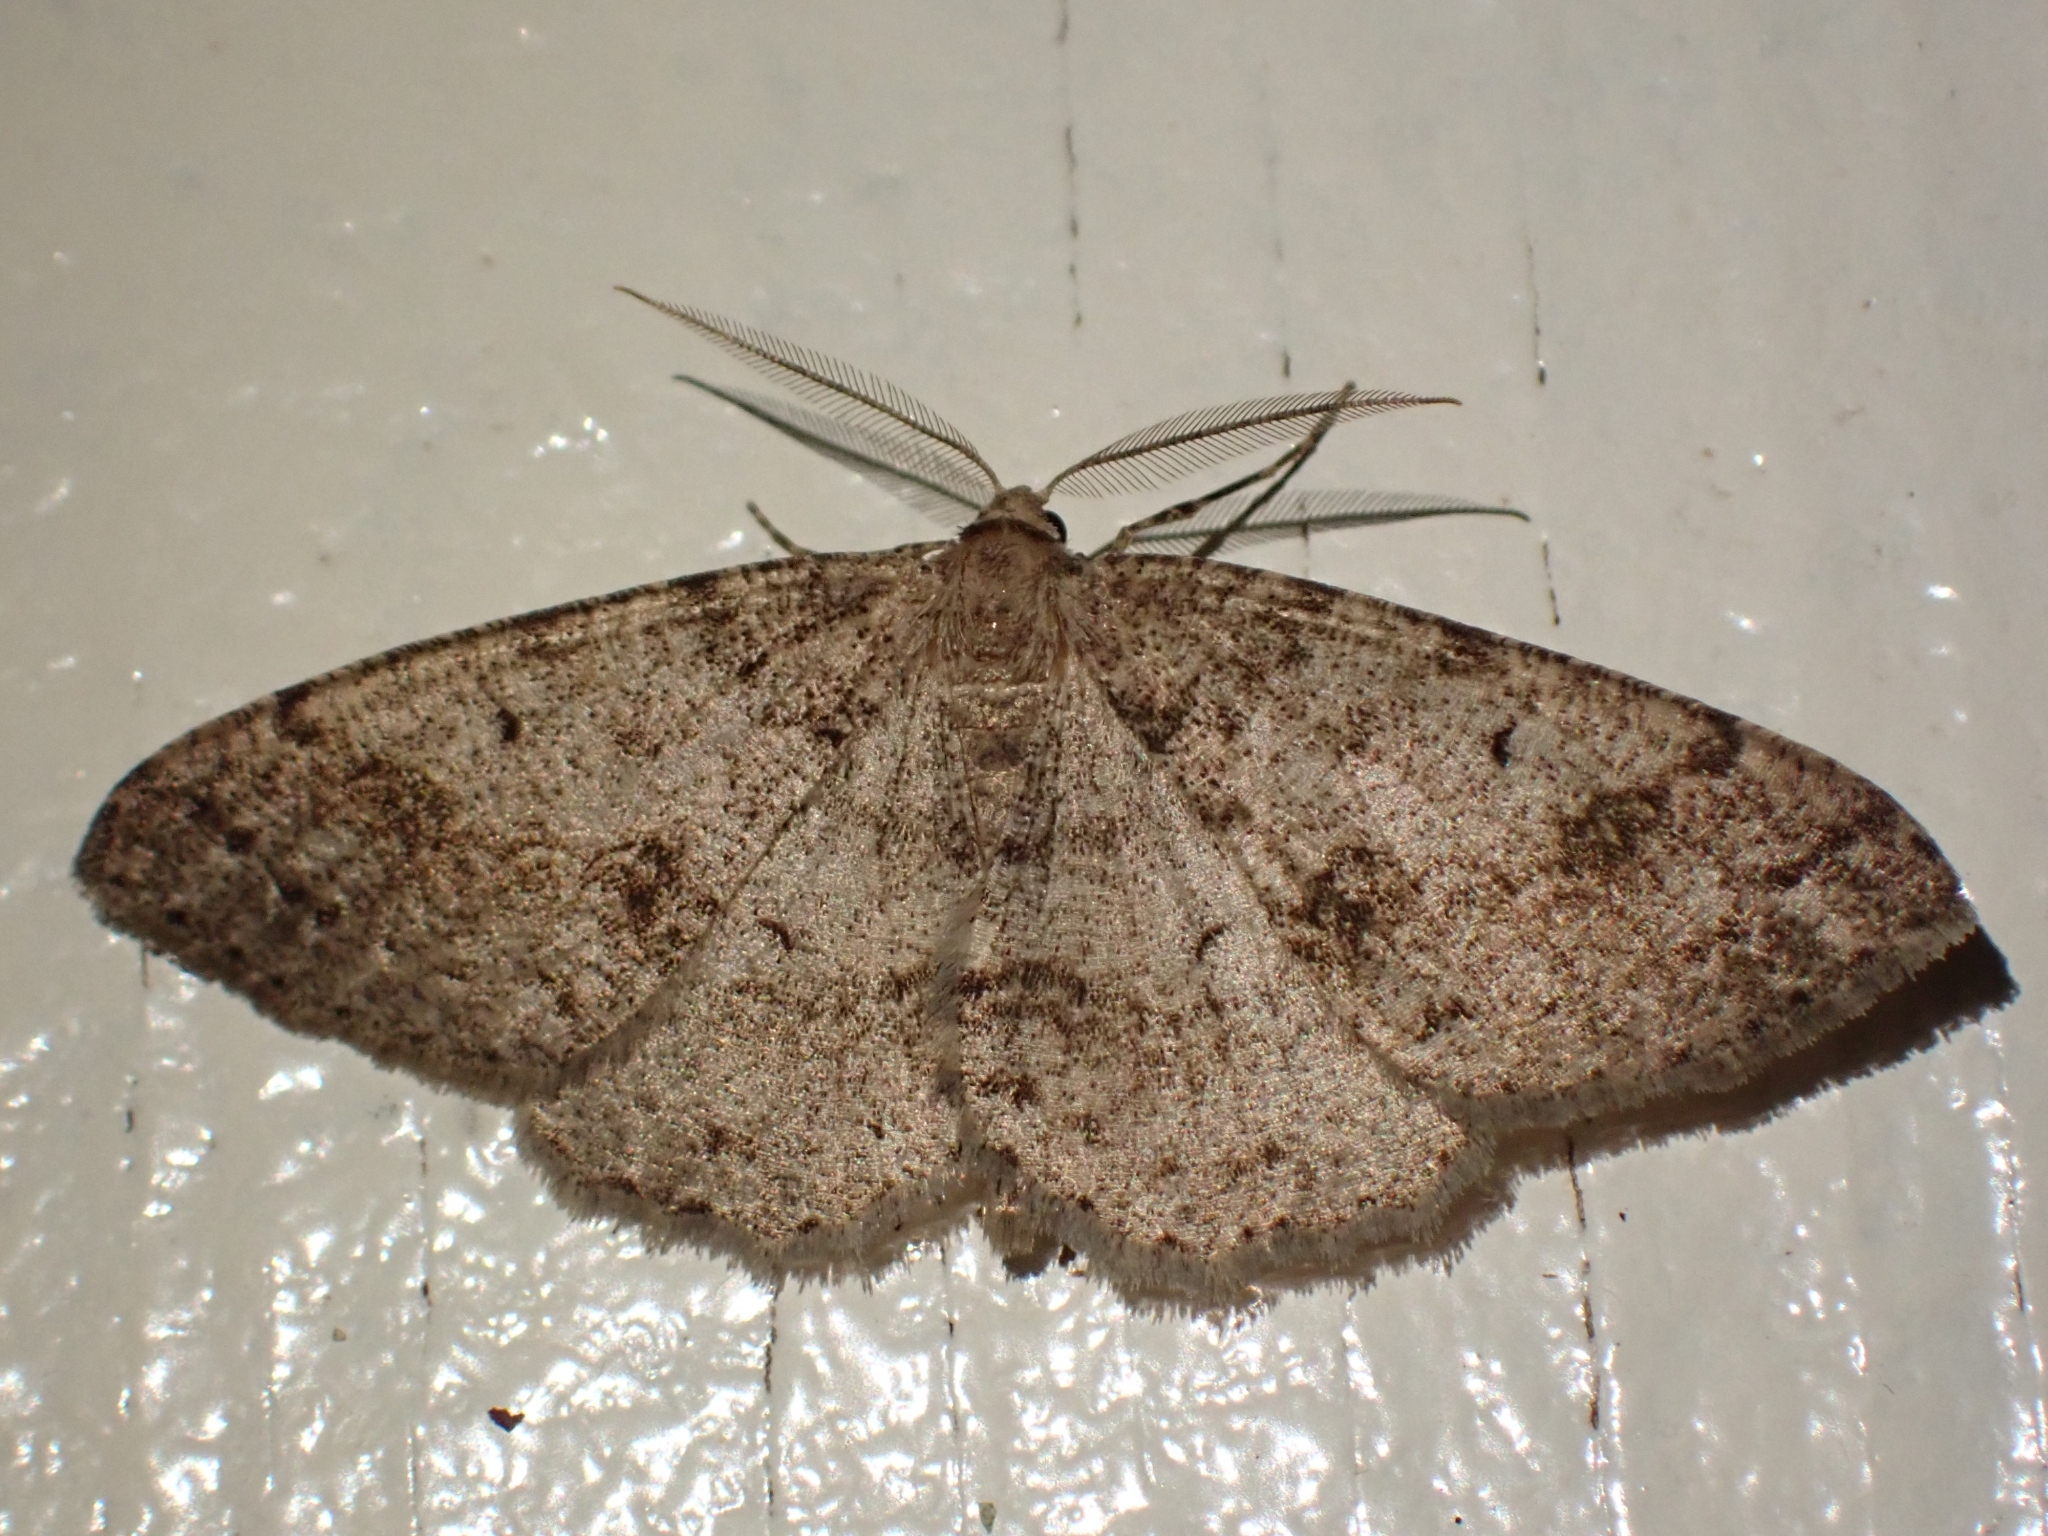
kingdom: Animalia
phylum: Arthropoda
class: Insecta
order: Lepidoptera
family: Geometridae
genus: Melanolophia
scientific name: Melanolophia imitata
